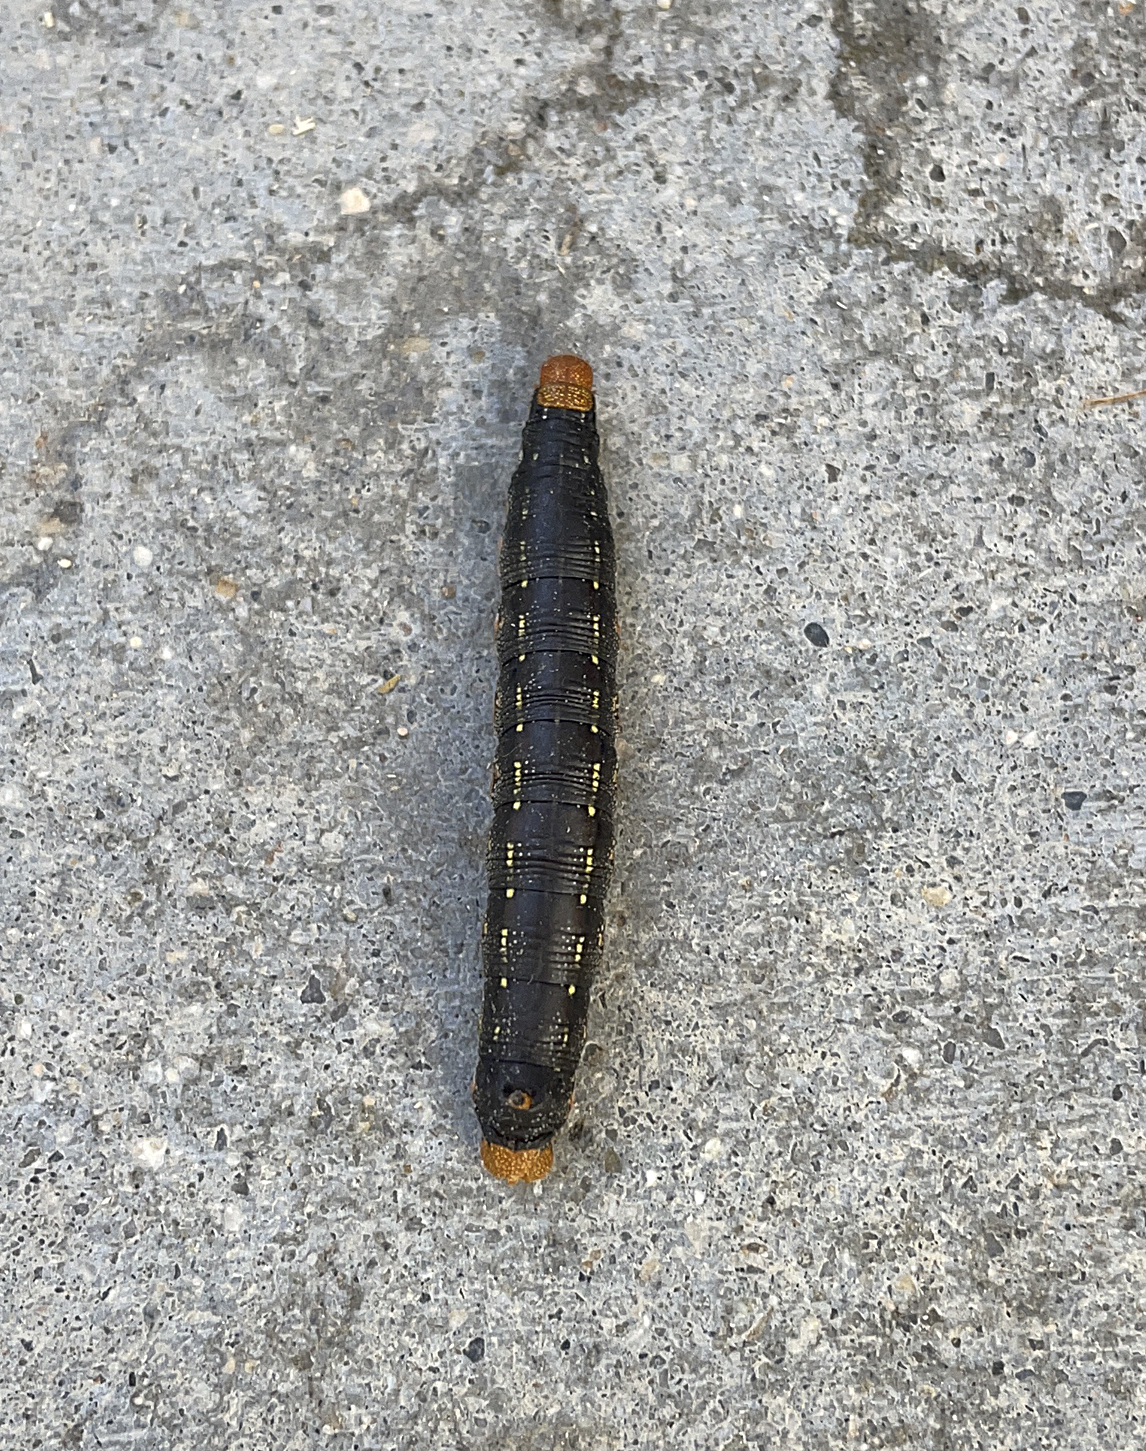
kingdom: Animalia
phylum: Arthropoda
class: Insecta
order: Lepidoptera
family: Sphingidae
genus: Hyles
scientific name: Hyles lineata
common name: White-lined sphinx
